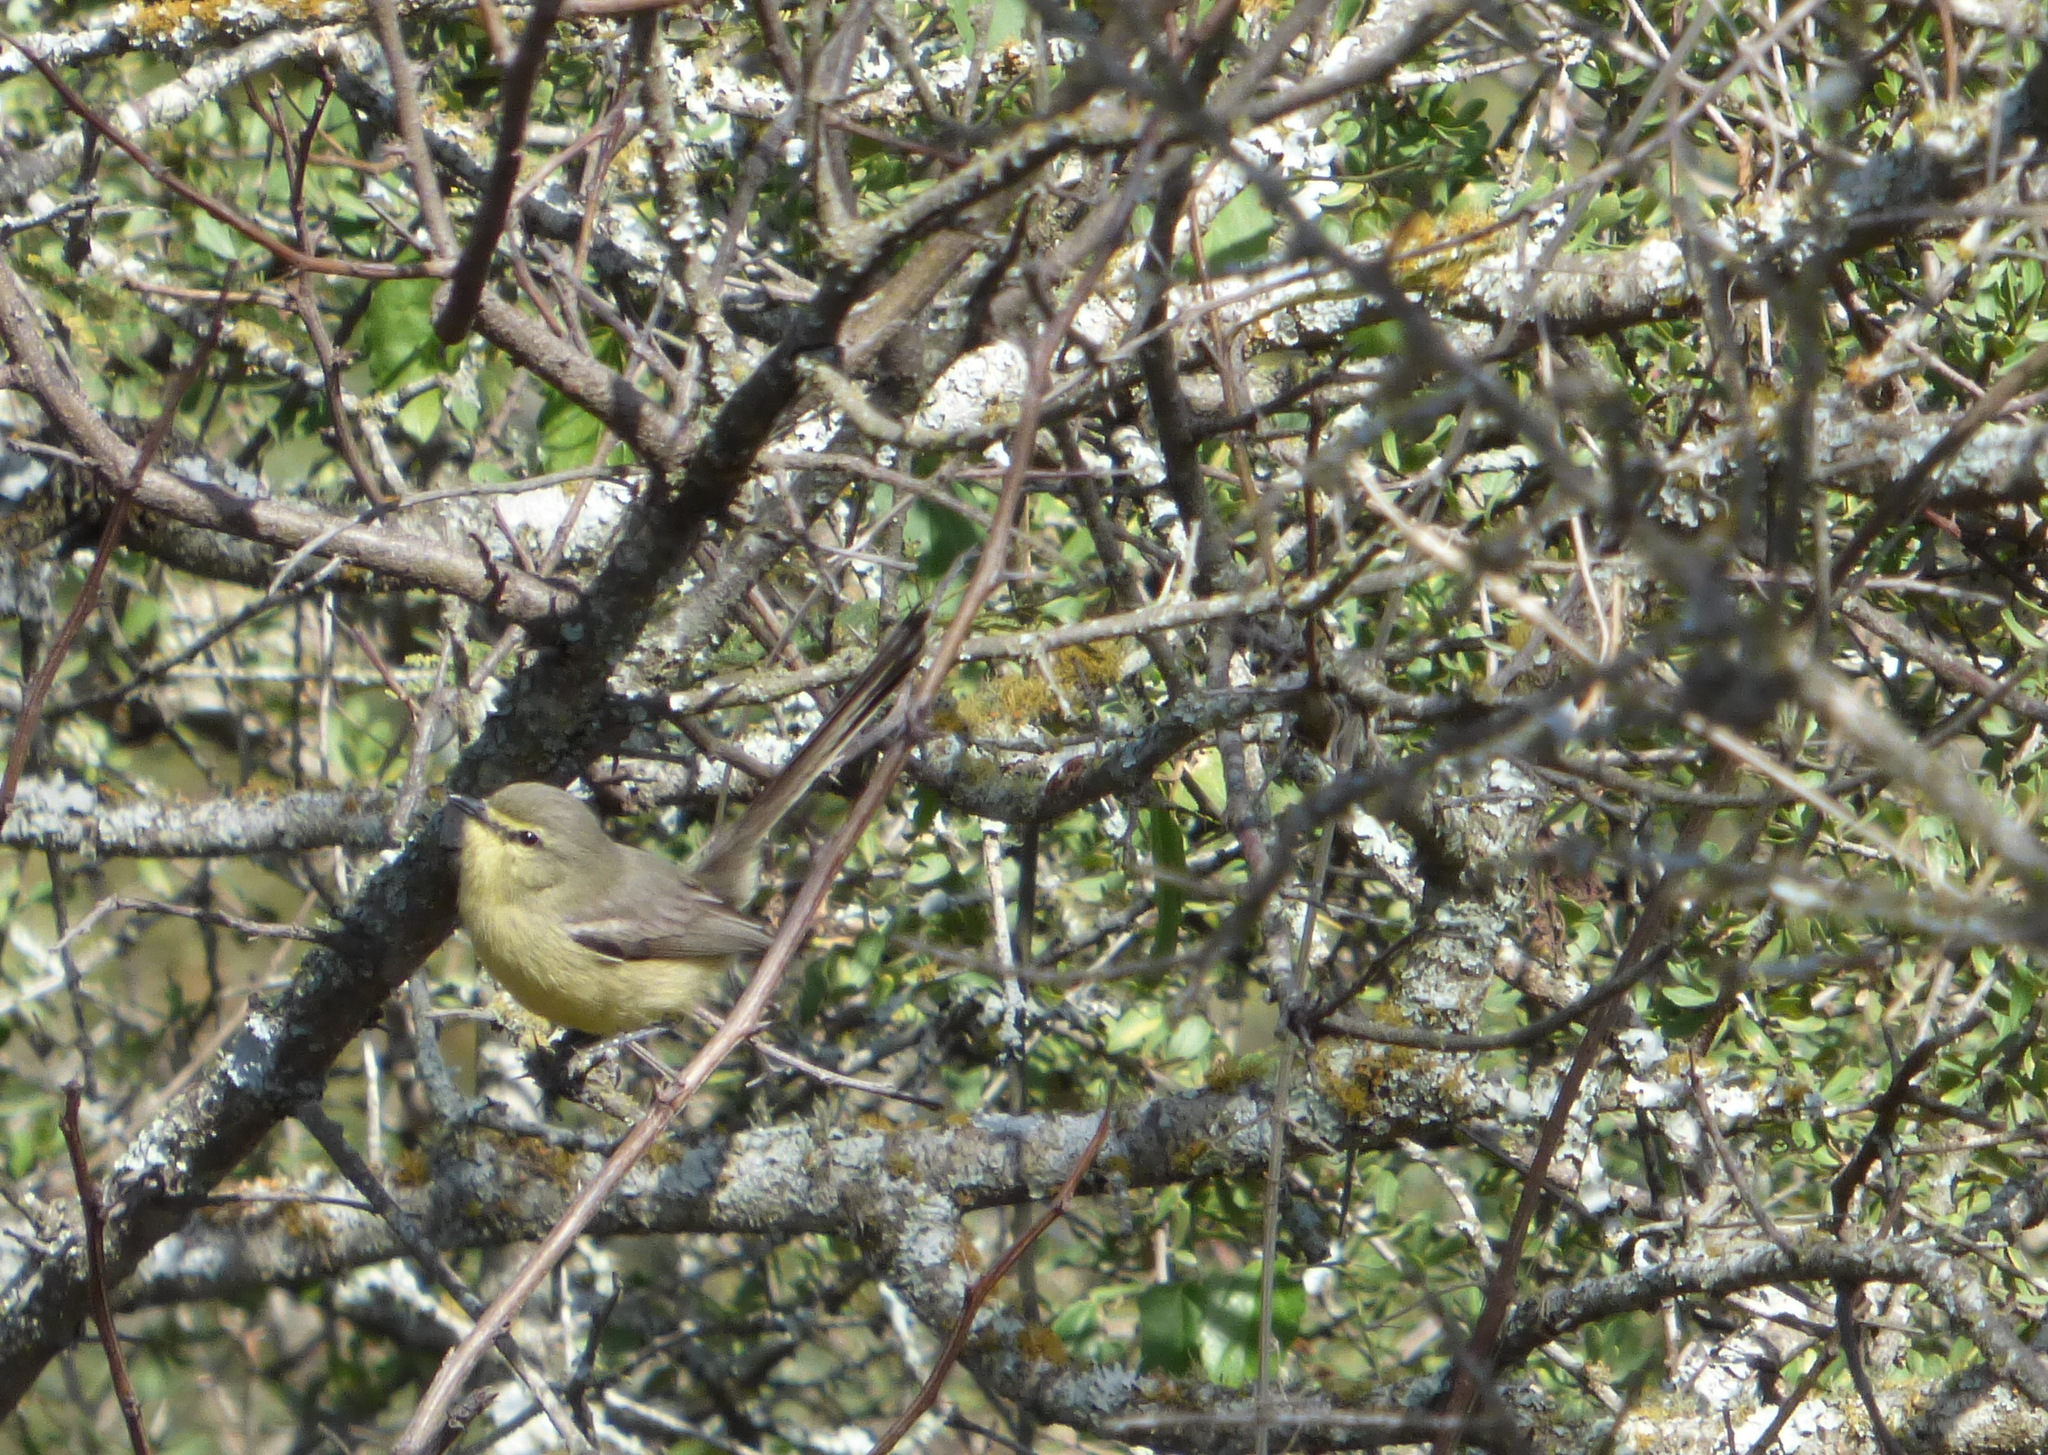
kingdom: Animalia
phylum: Chordata
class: Aves
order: Passeriformes
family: Tyrannidae
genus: Stigmatura
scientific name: Stigmatura budytoides
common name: Greater wagtail-tyrant
